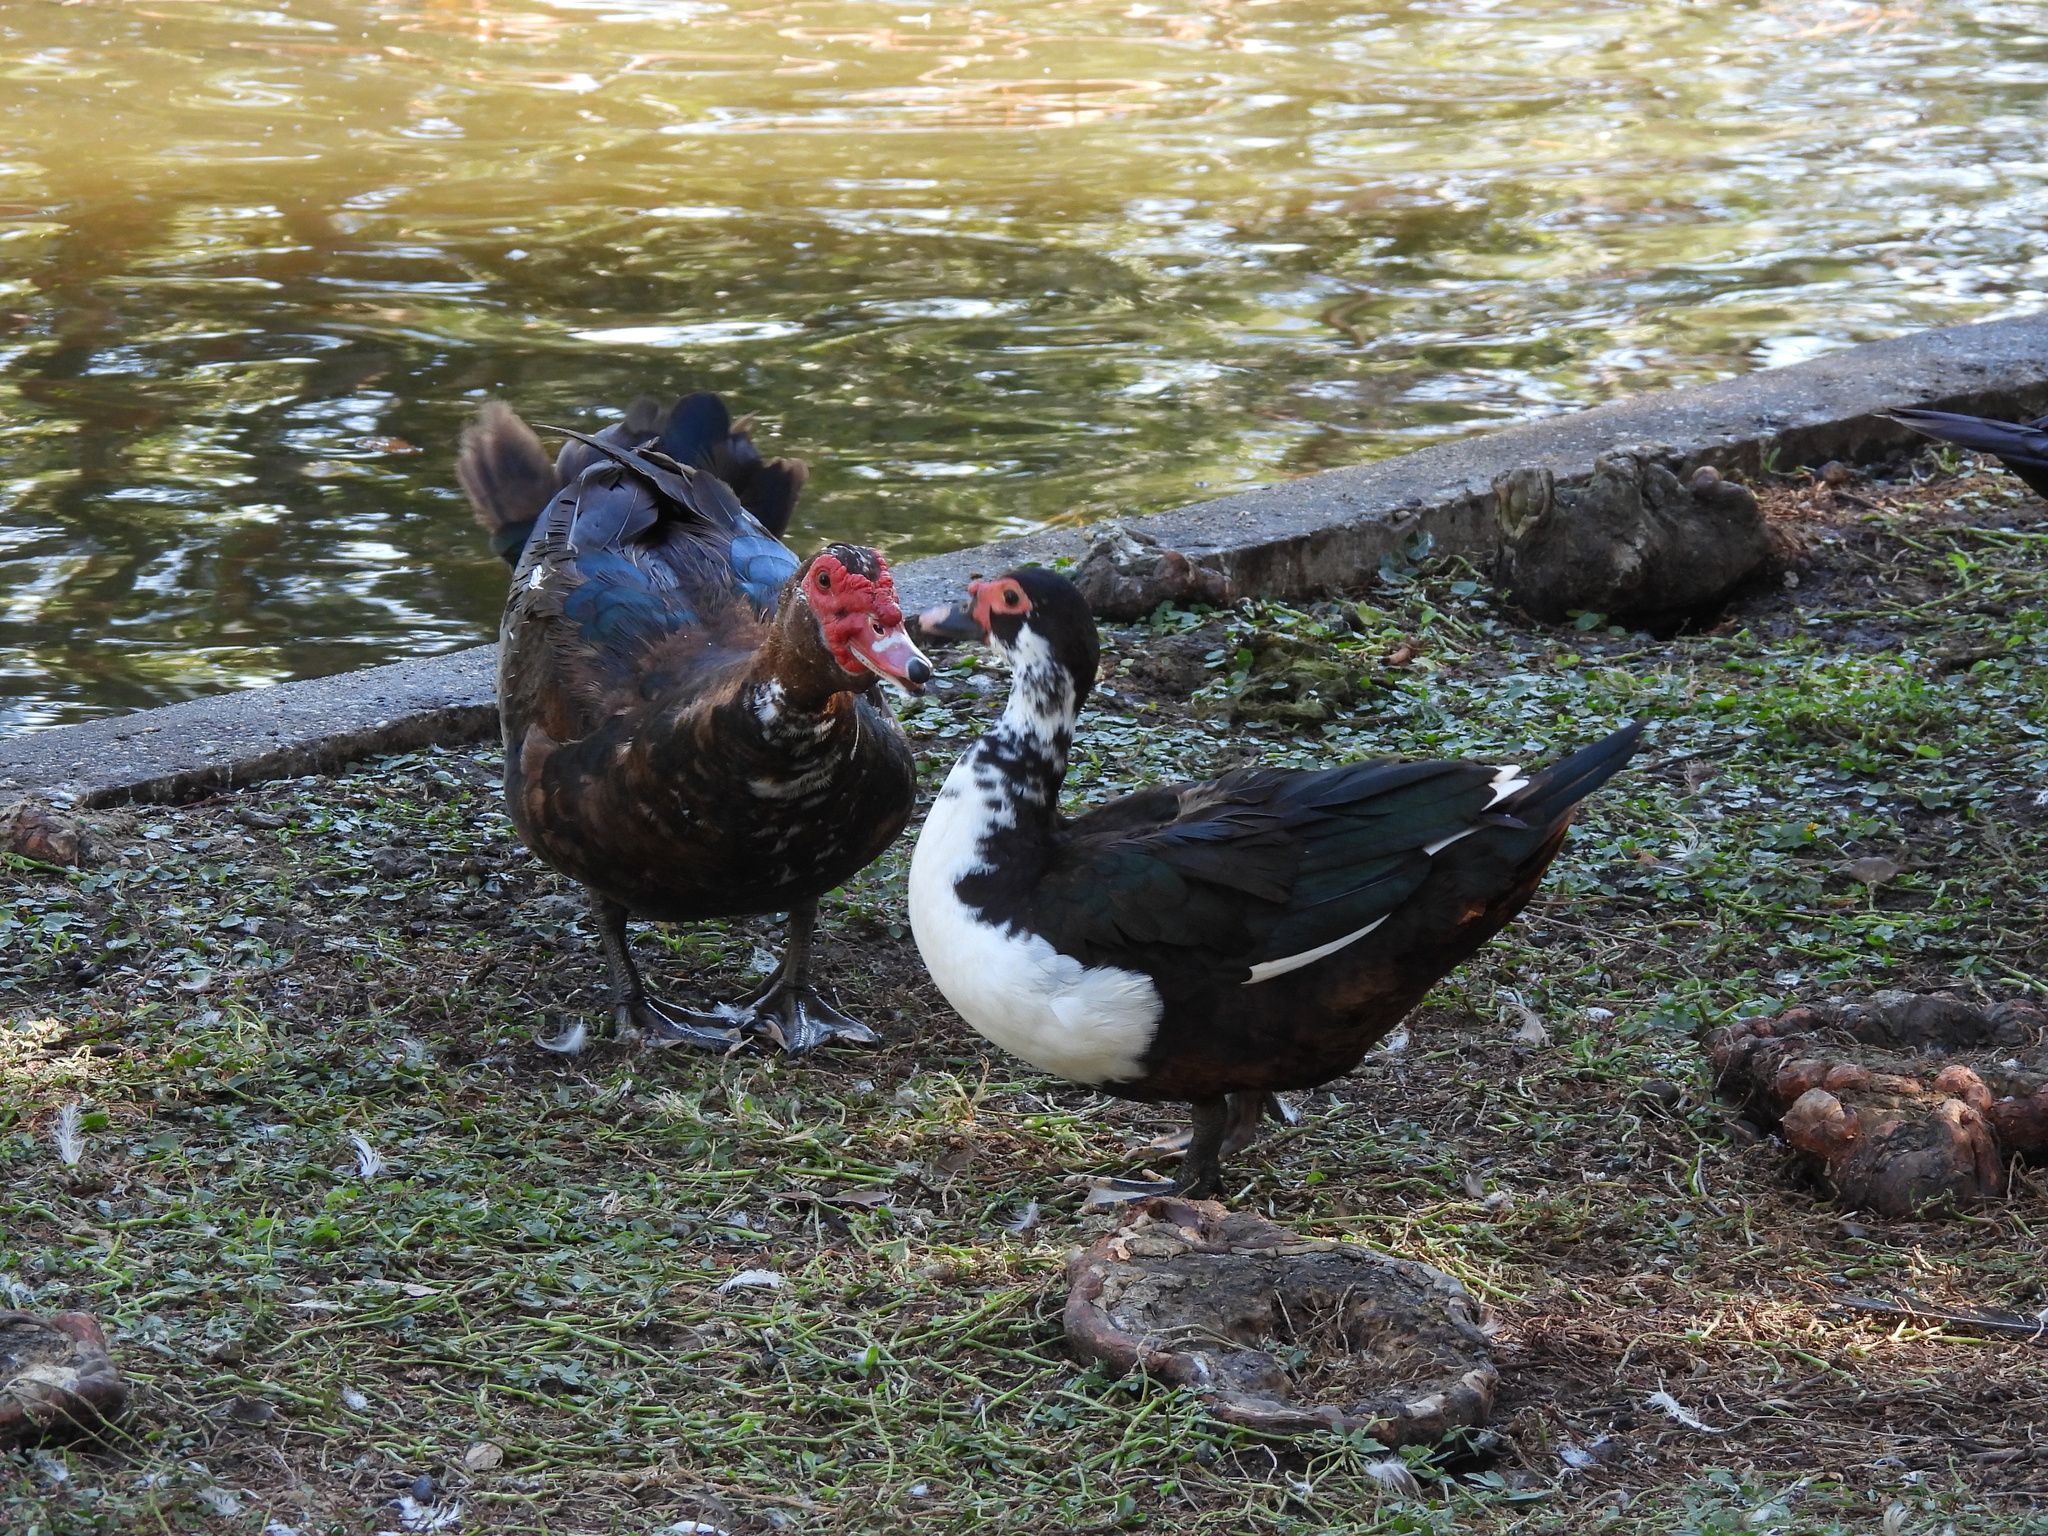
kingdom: Animalia
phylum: Chordata
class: Aves
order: Anseriformes
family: Anatidae
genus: Cairina
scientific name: Cairina moschata
